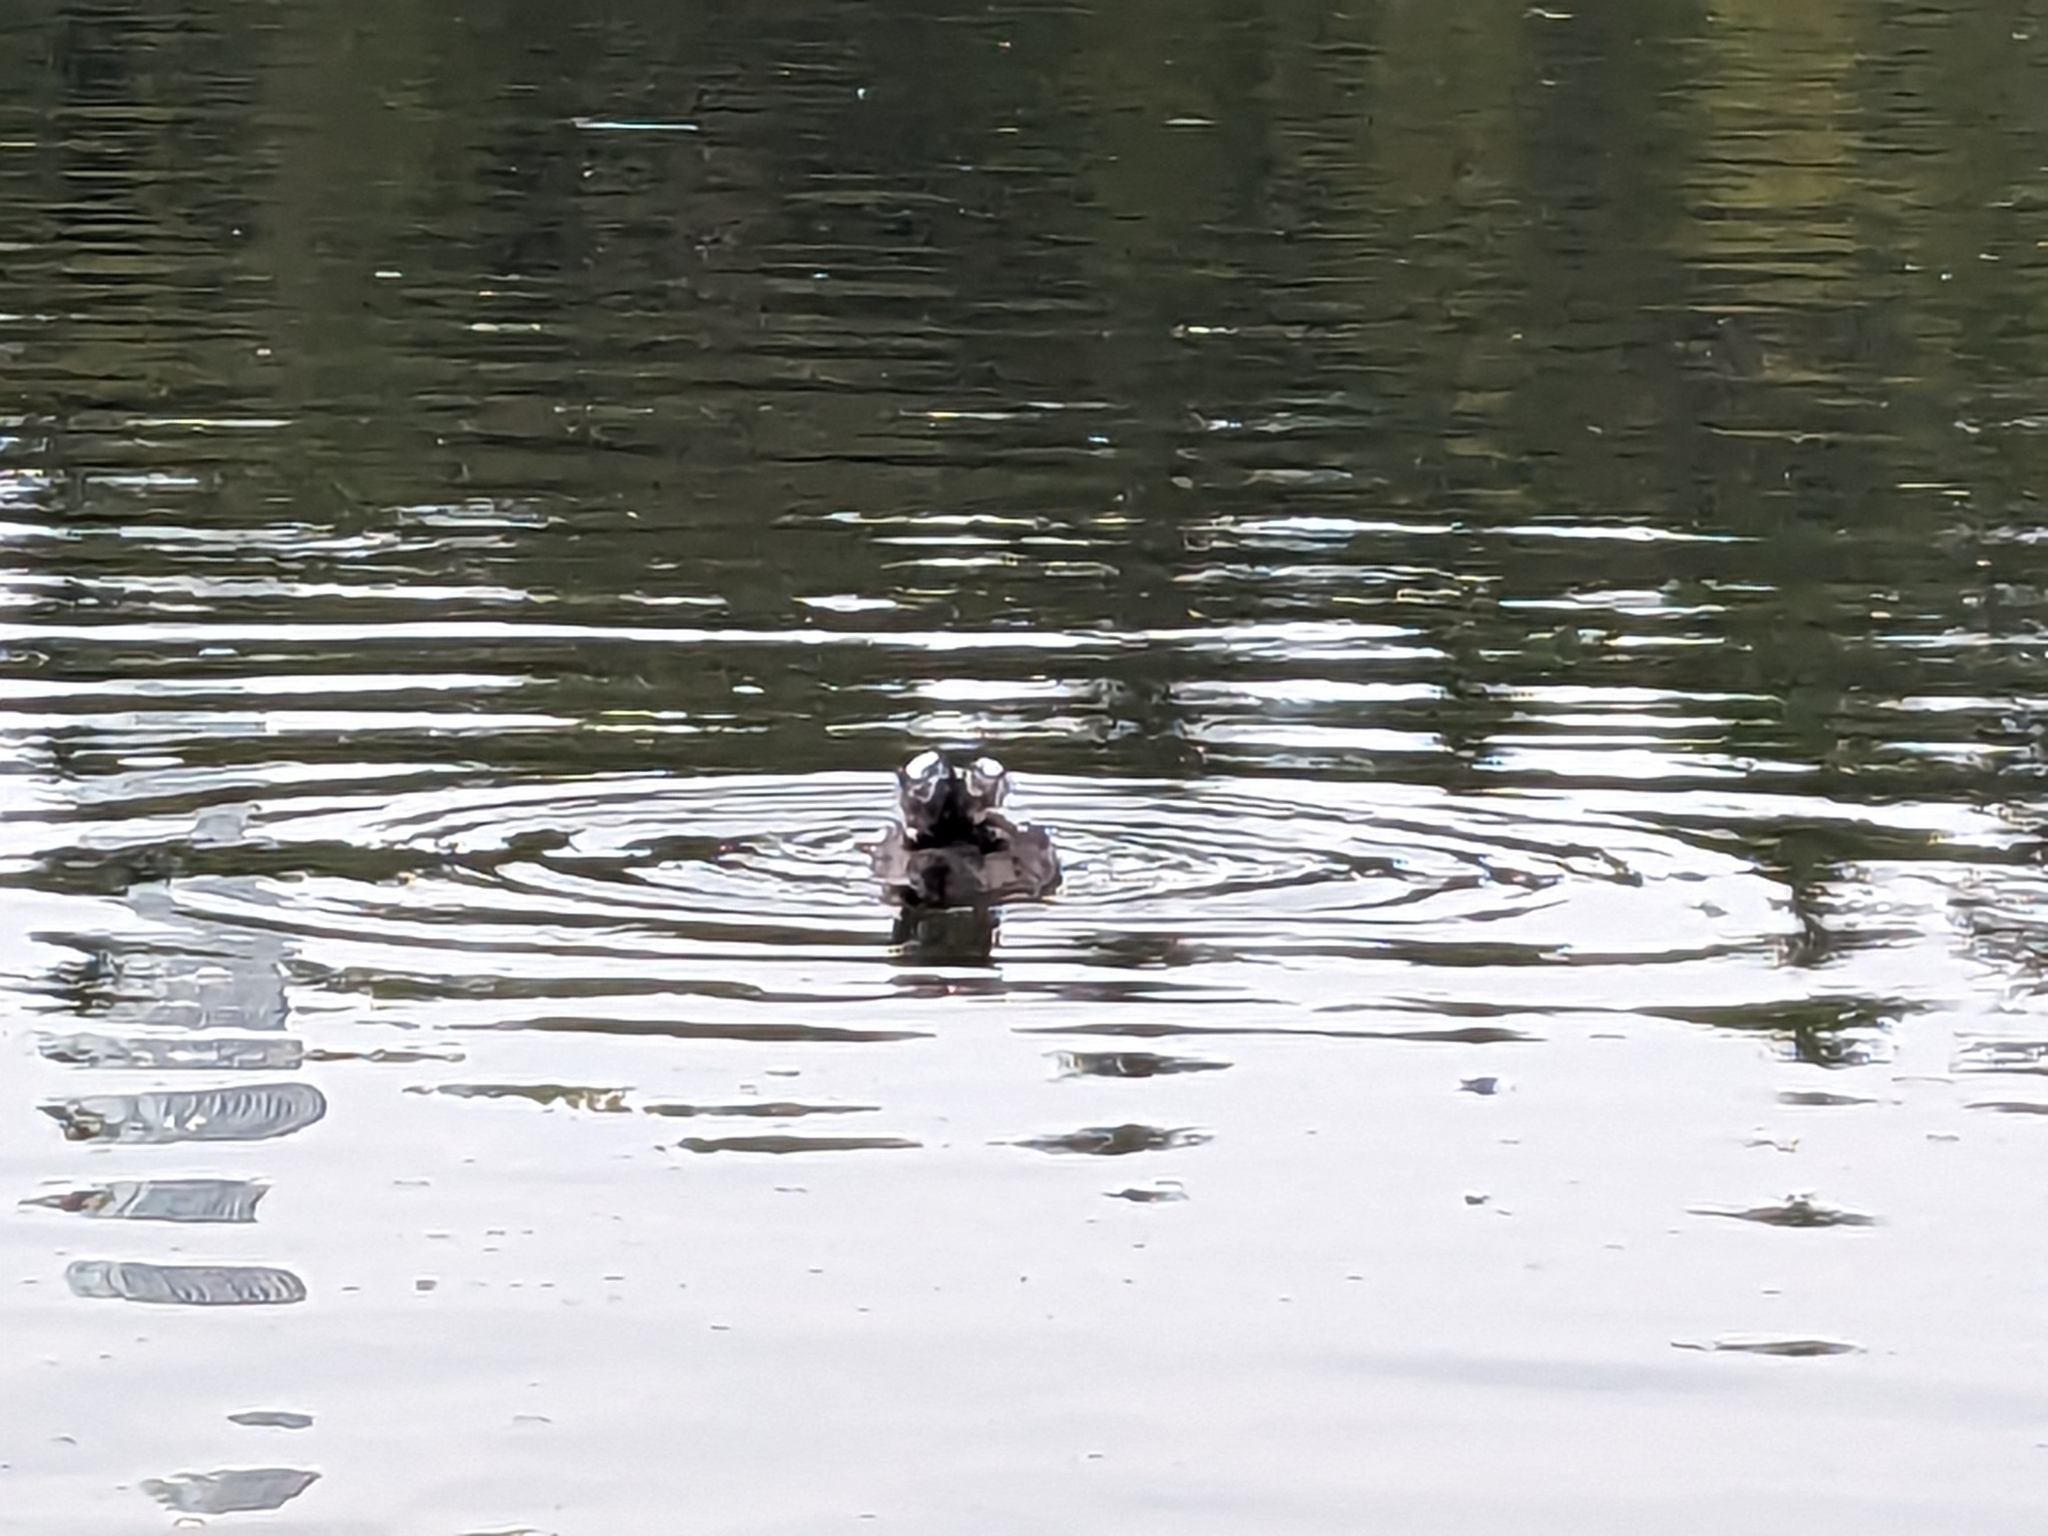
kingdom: Animalia
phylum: Chordata
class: Aves
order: Anseriformes
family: Anatidae
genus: Bucephala
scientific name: Bucephala clangula
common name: Common goldeneye
